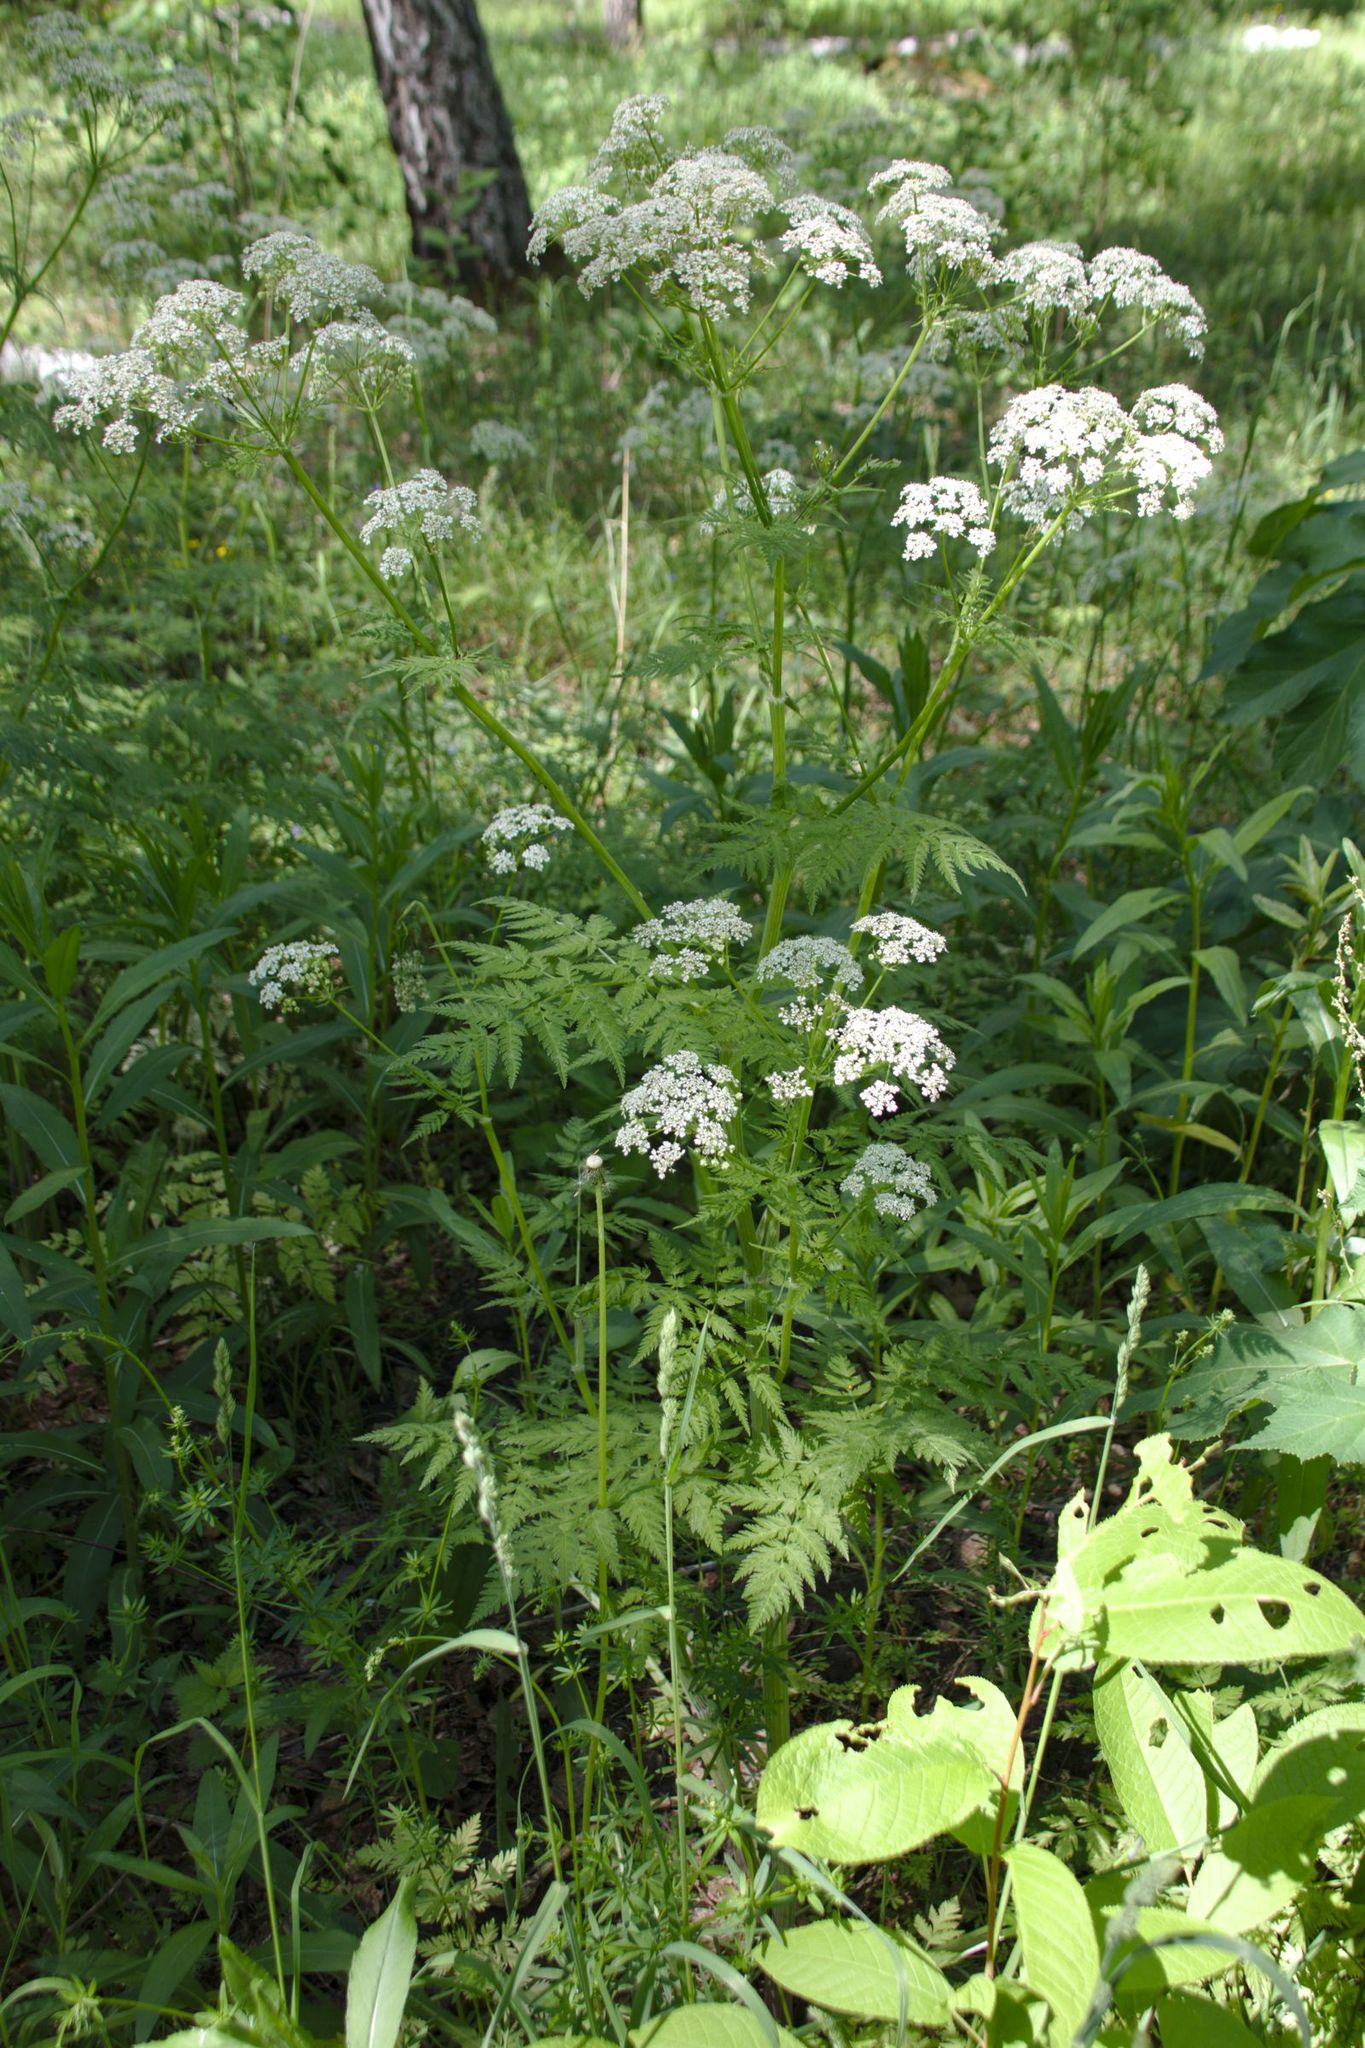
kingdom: Plantae
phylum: Tracheophyta
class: Magnoliopsida
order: Apiales
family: Apiaceae
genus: Anthriscus
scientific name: Anthriscus sylvestris
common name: Cow parsley
